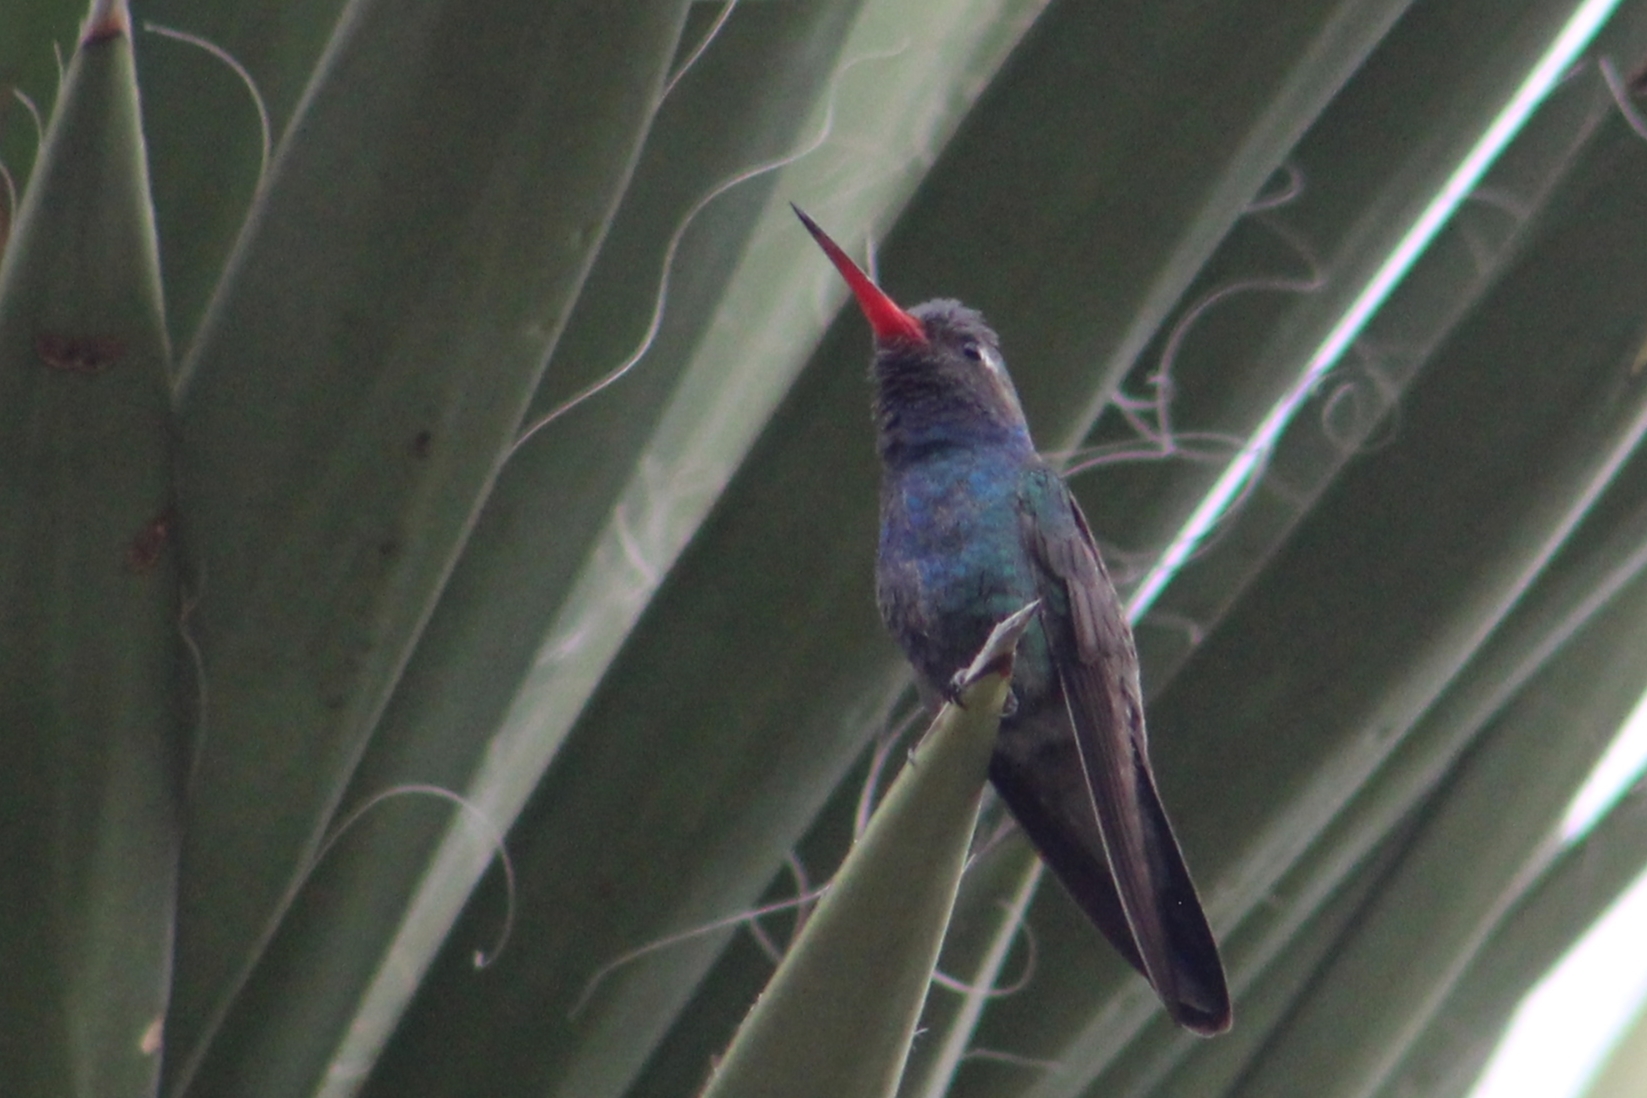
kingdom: Animalia
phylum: Chordata
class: Aves
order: Apodiformes
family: Trochilidae
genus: Cynanthus
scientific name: Cynanthus latirostris
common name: Broad-billed hummingbird
